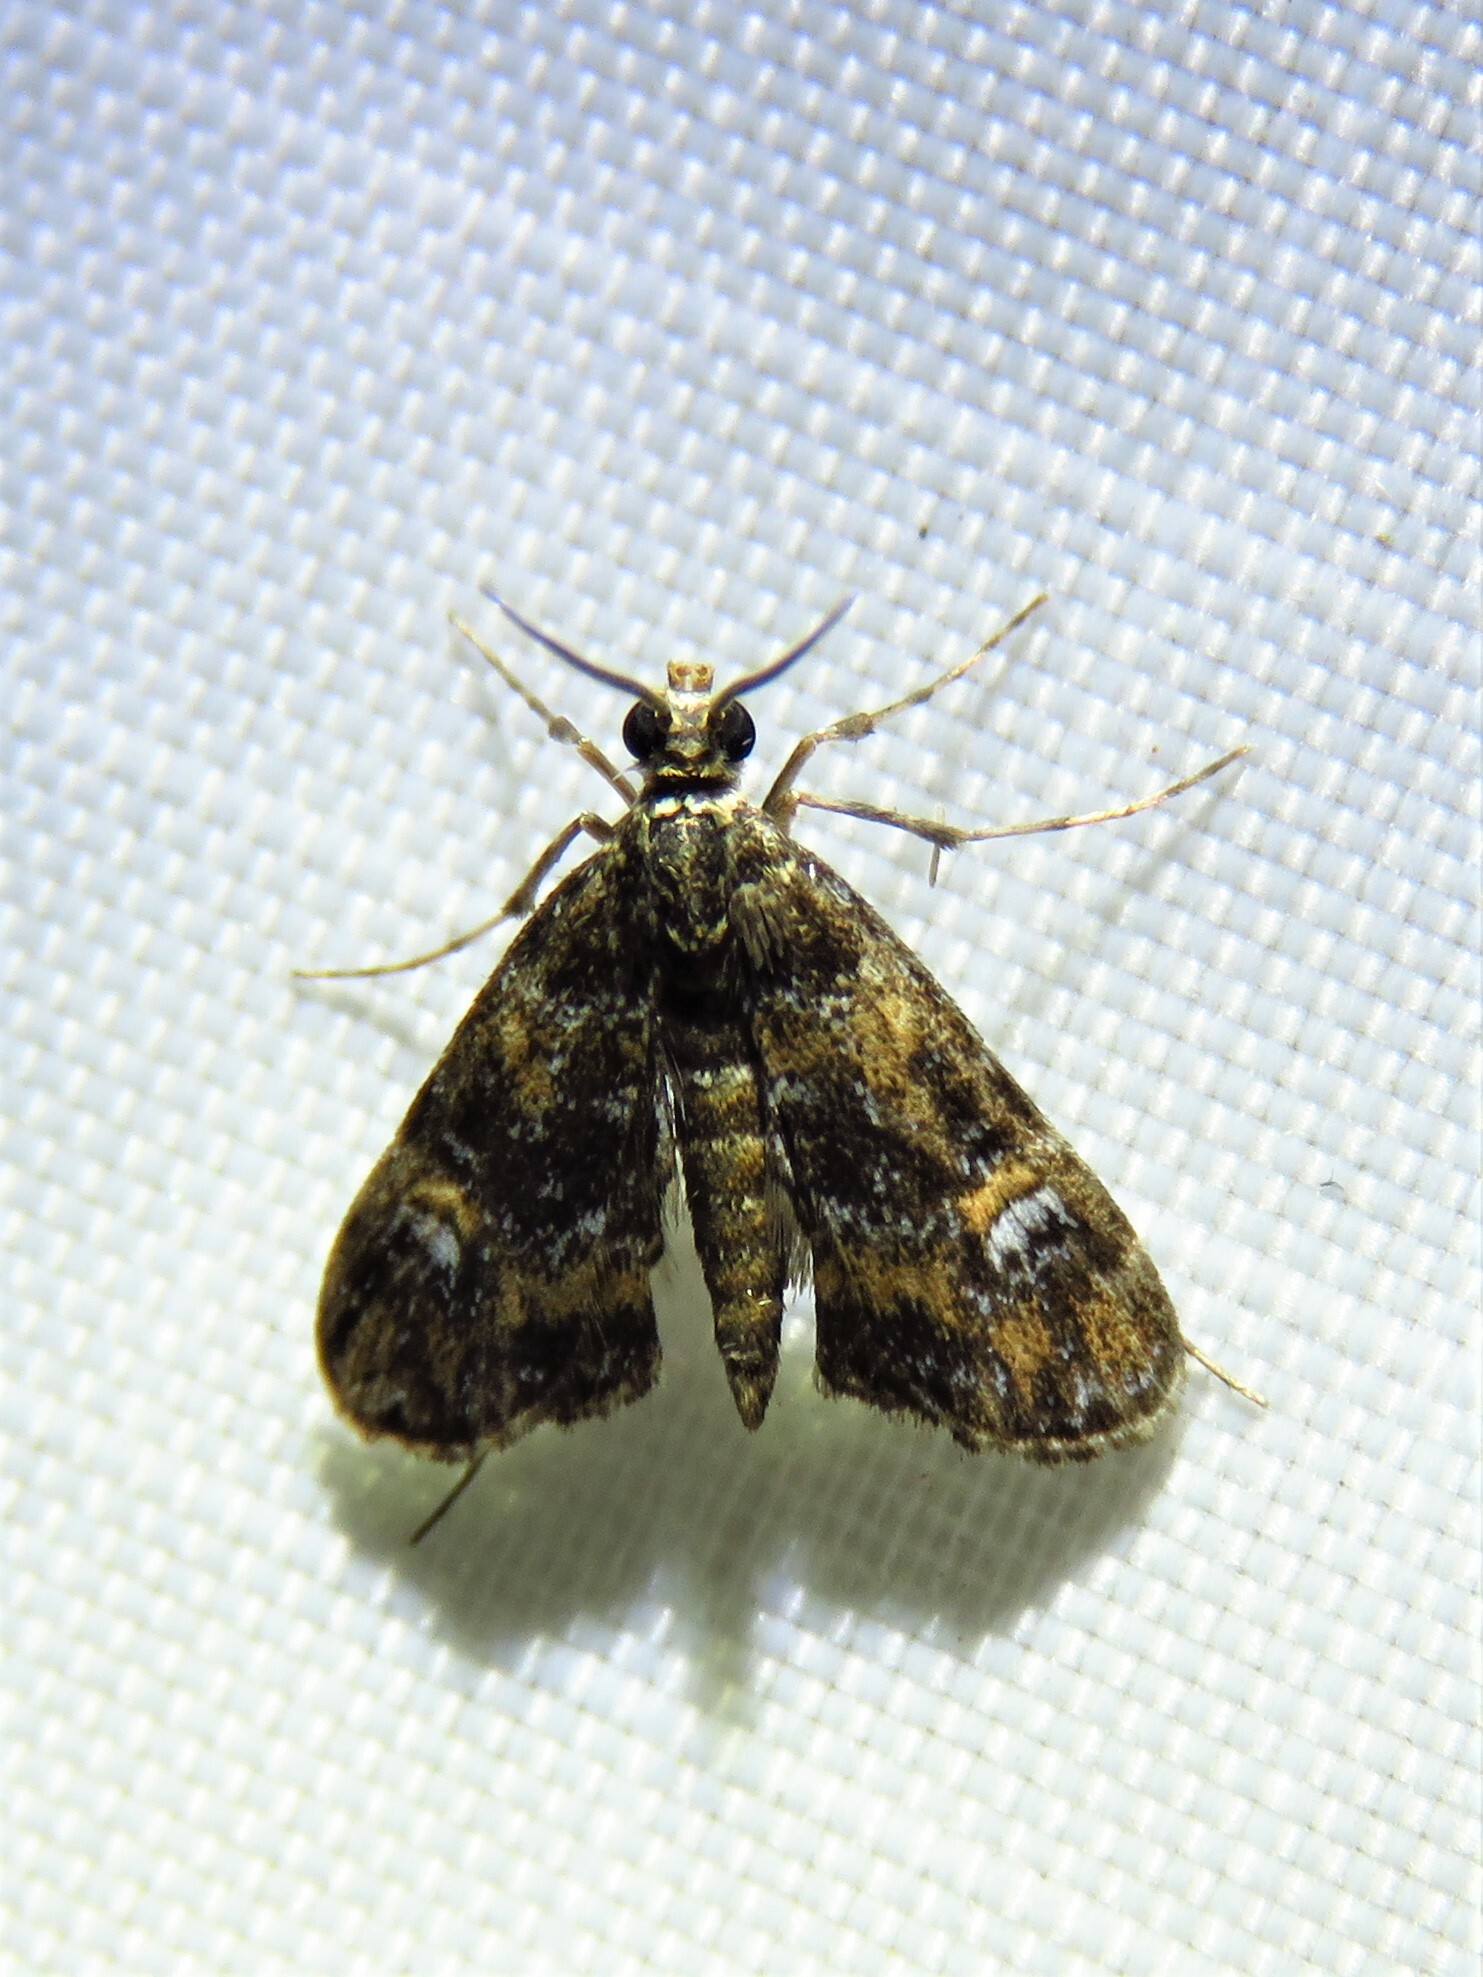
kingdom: Animalia
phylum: Arthropoda
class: Insecta
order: Lepidoptera
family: Crambidae
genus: Elophila
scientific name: Elophila obliteralis
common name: Waterlily leafcutter moth
